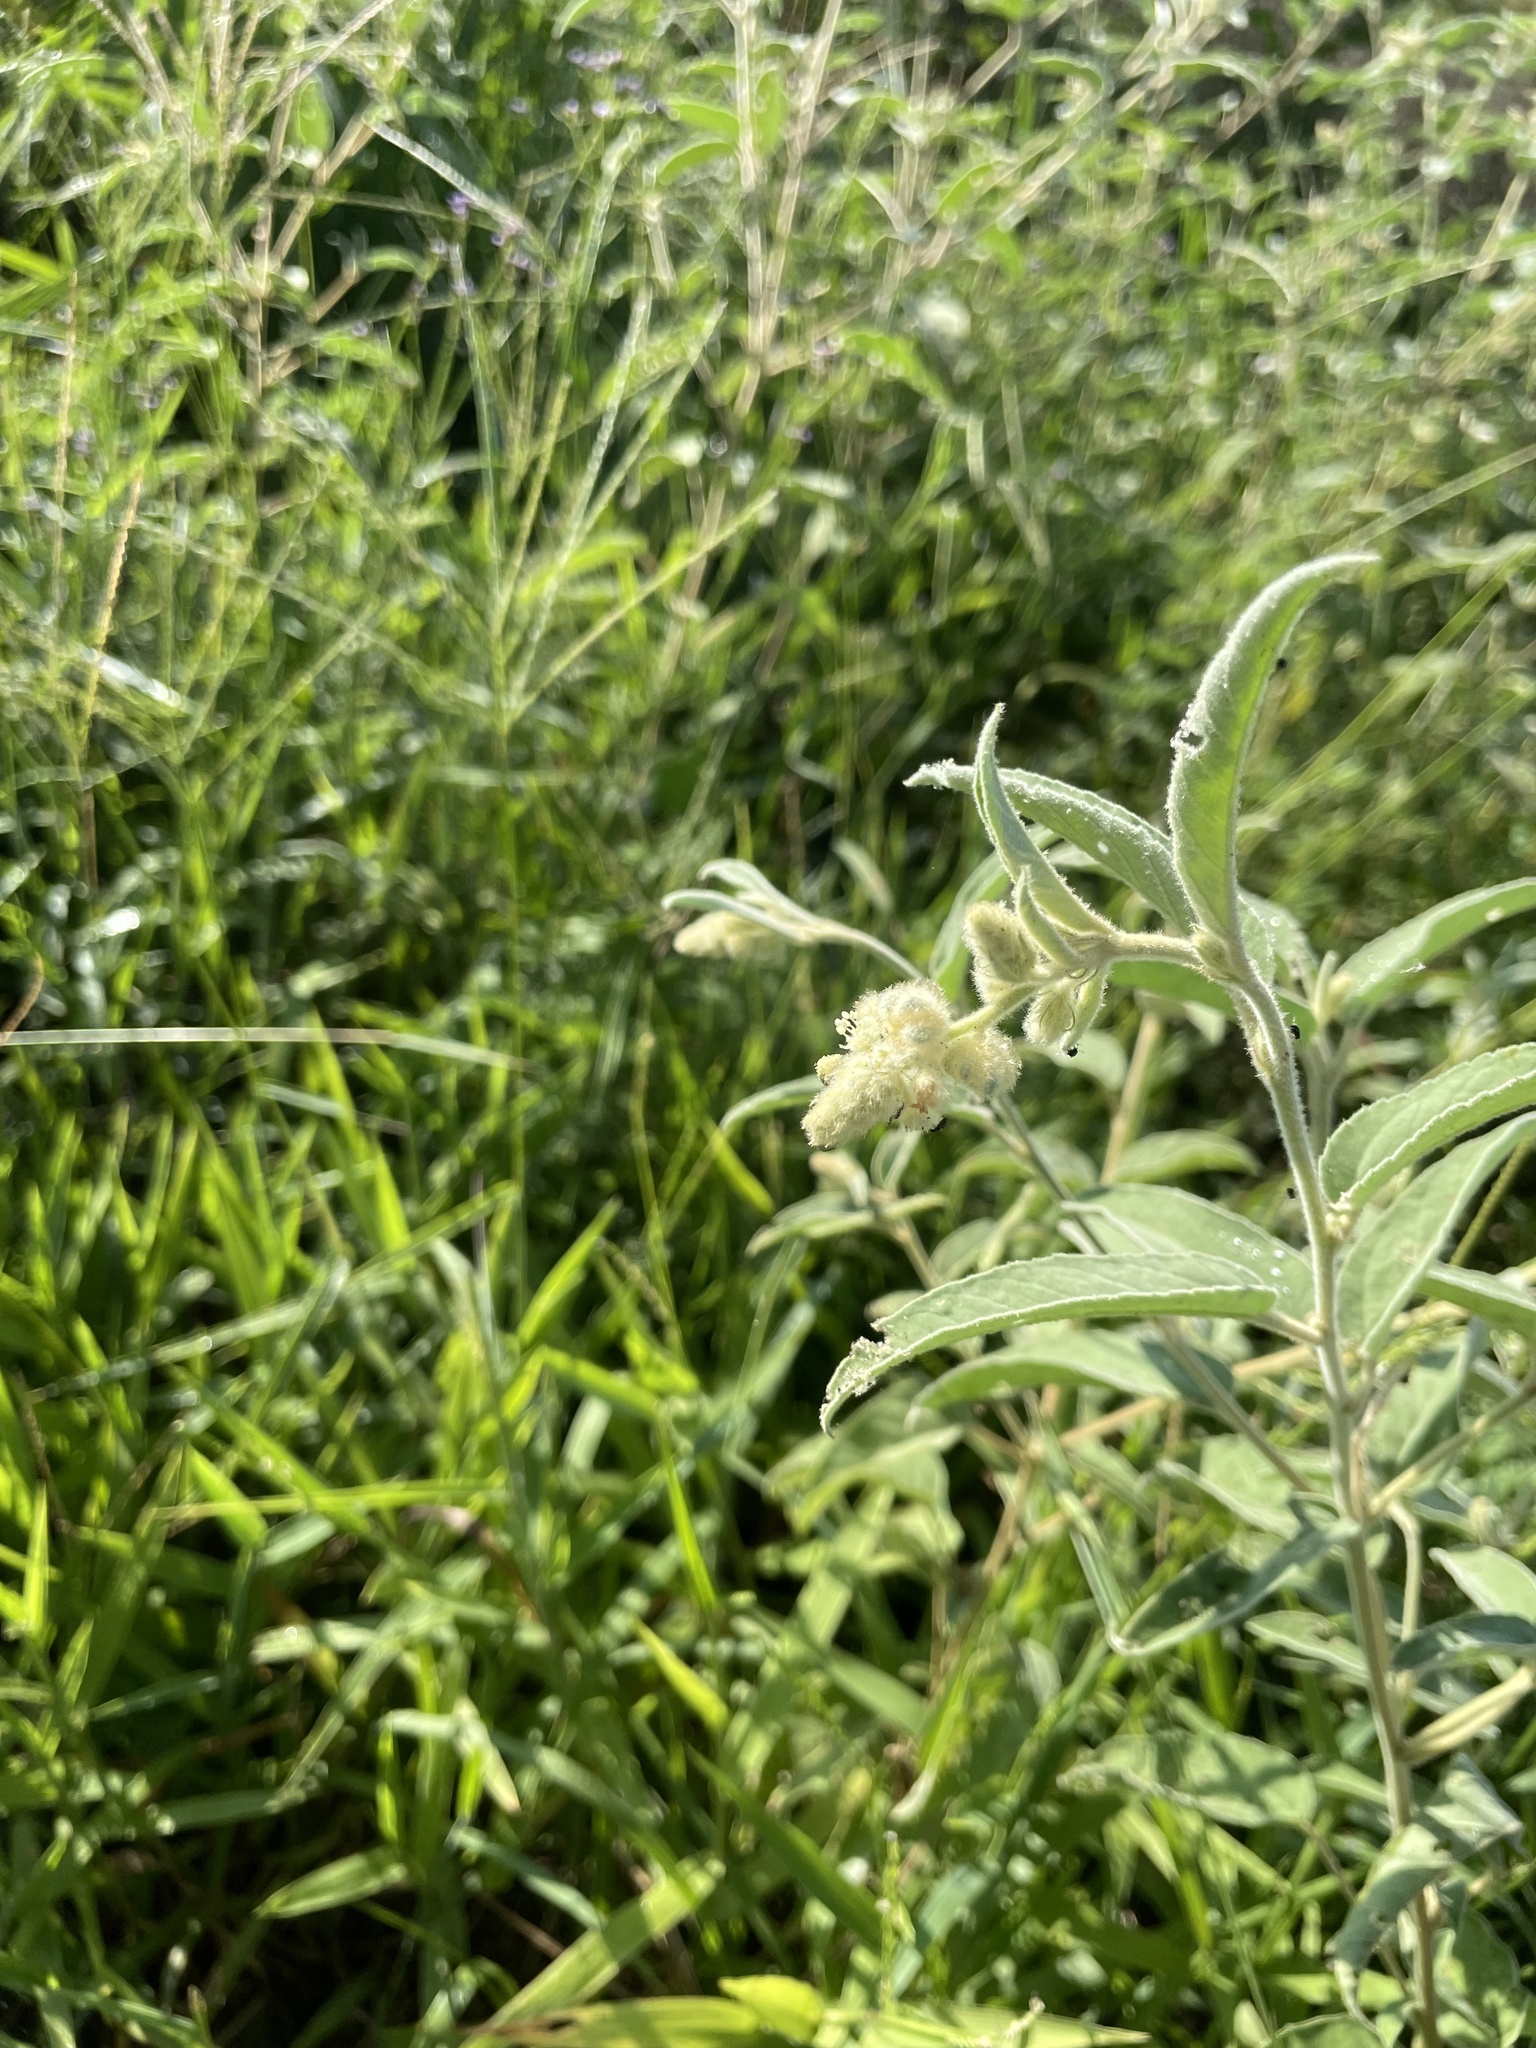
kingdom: Plantae
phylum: Tracheophyta
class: Magnoliopsida
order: Malpighiales
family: Euphorbiaceae
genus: Croton
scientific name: Croton lindheimeri
